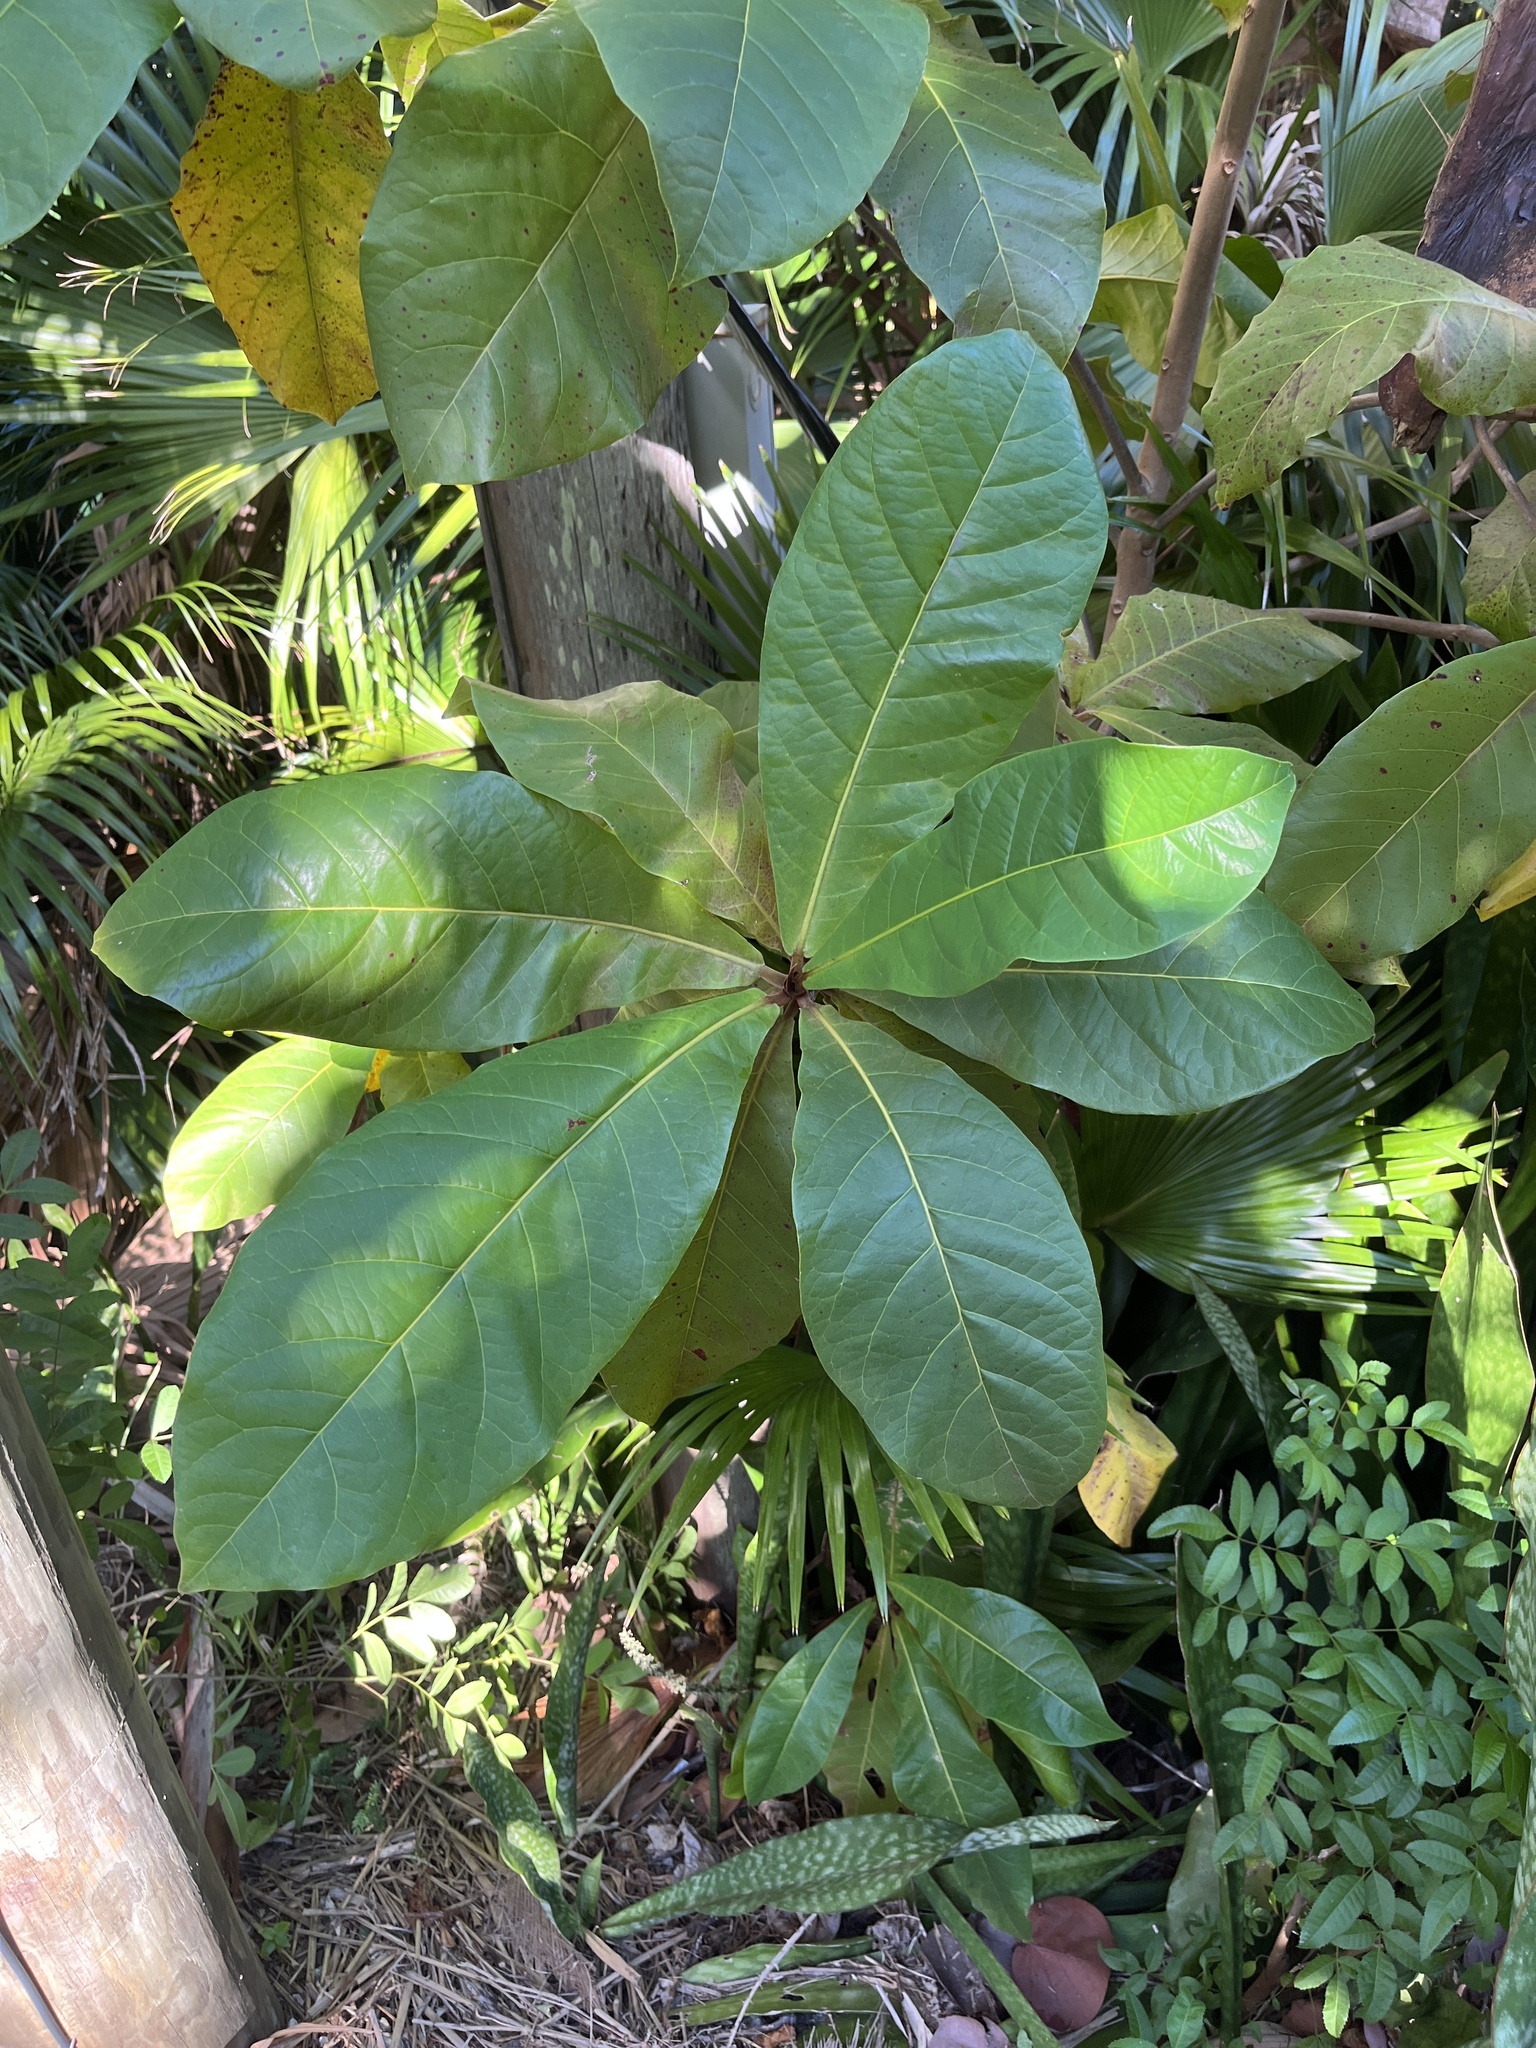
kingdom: Plantae
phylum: Tracheophyta
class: Magnoliopsida
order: Myrtales
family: Combretaceae
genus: Terminalia
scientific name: Terminalia catappa
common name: Tropical almond
